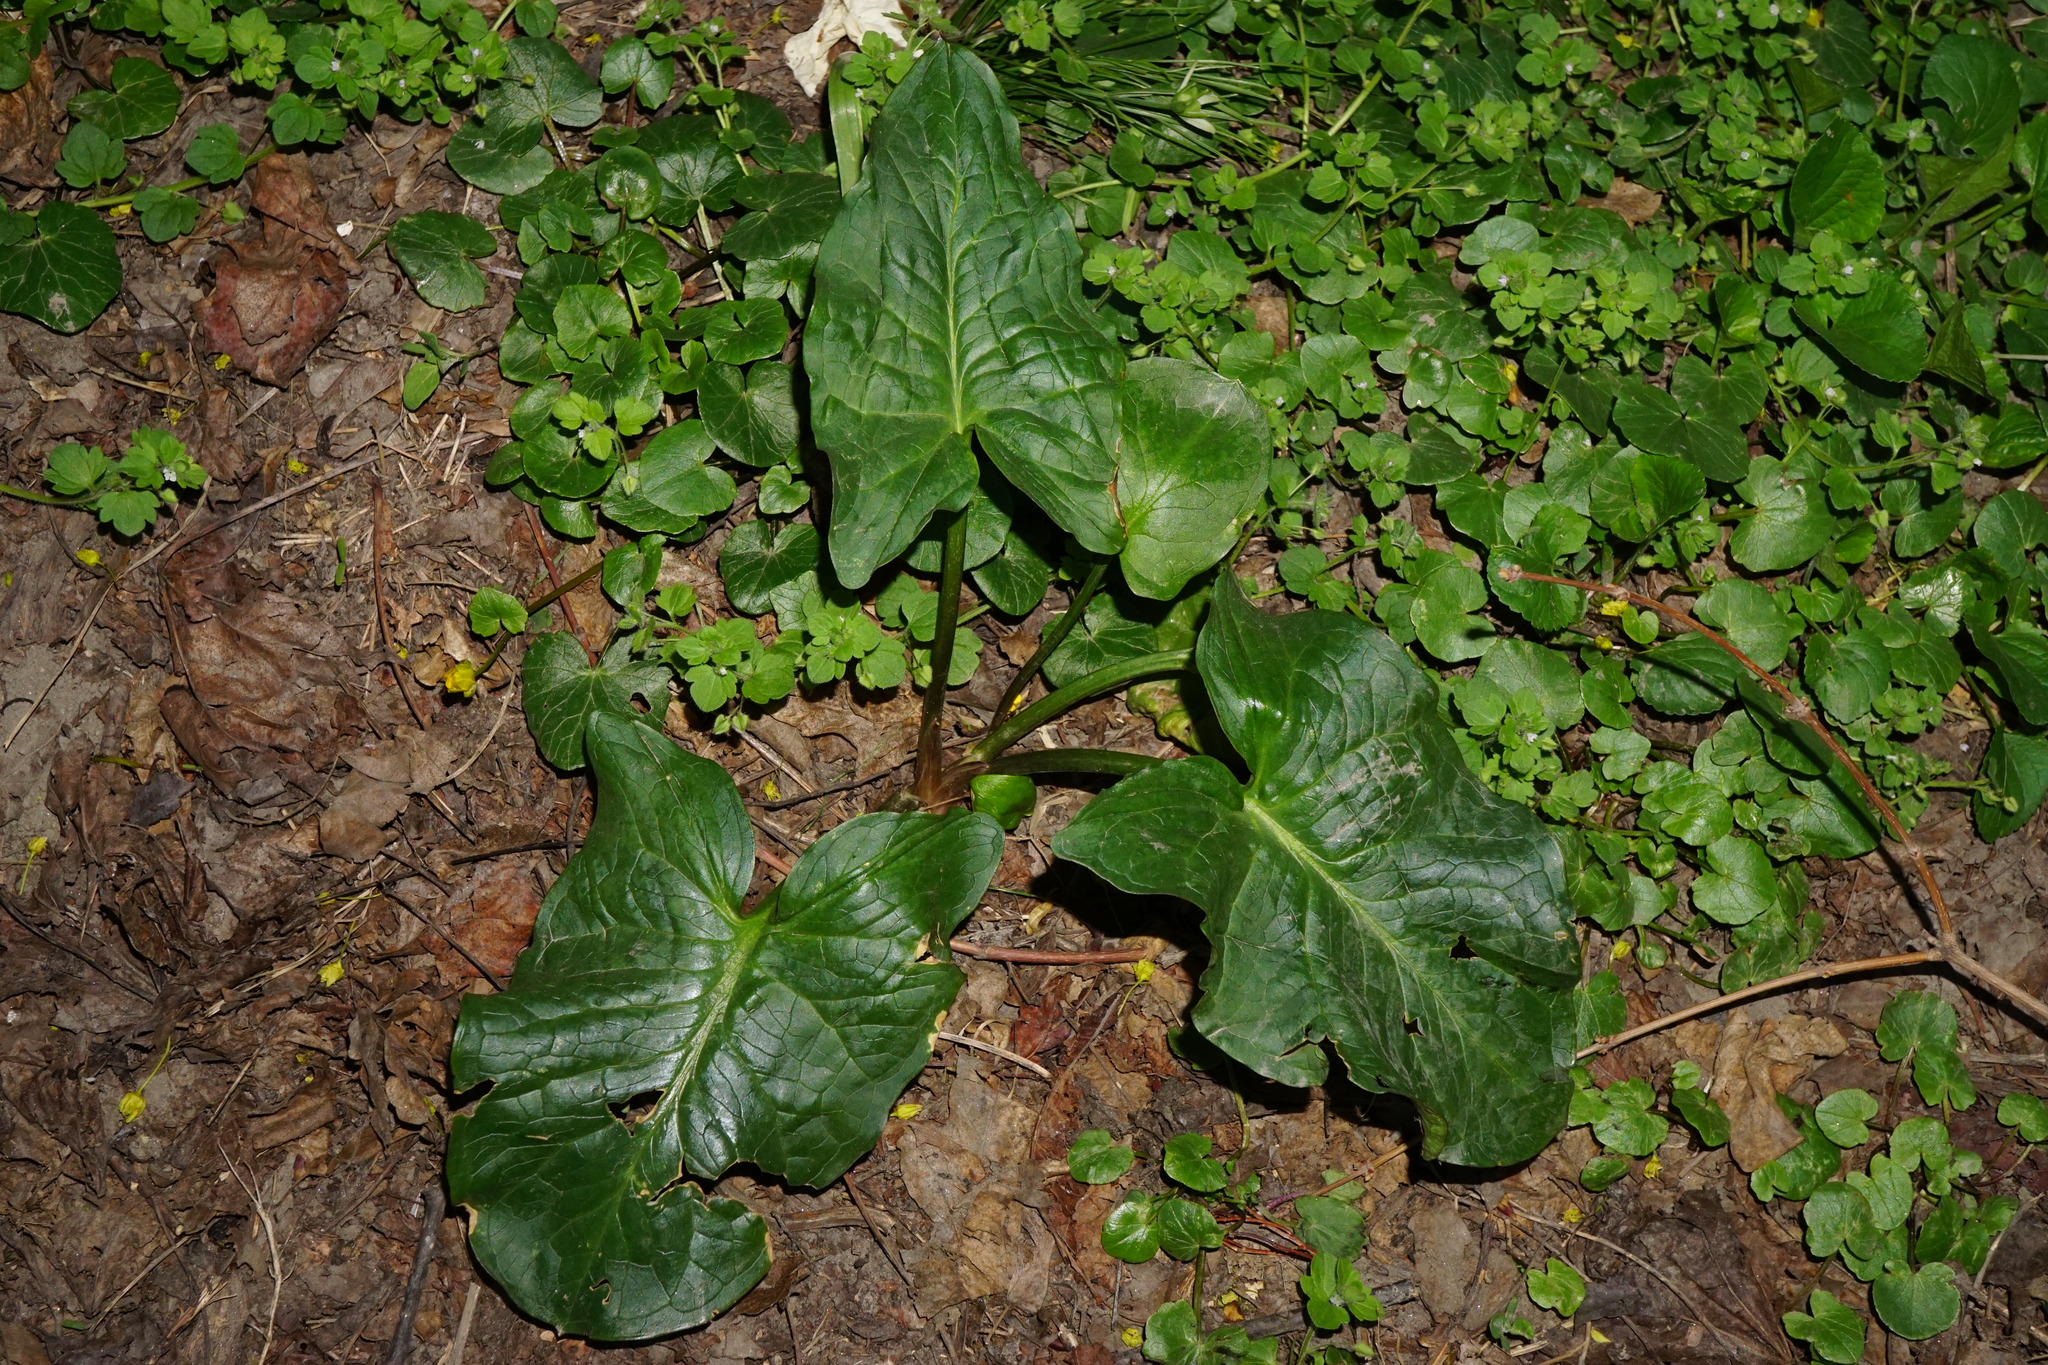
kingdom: Plantae
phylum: Tracheophyta
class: Liliopsida
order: Alismatales
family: Araceae
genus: Arum
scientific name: Arum cylindraceum
